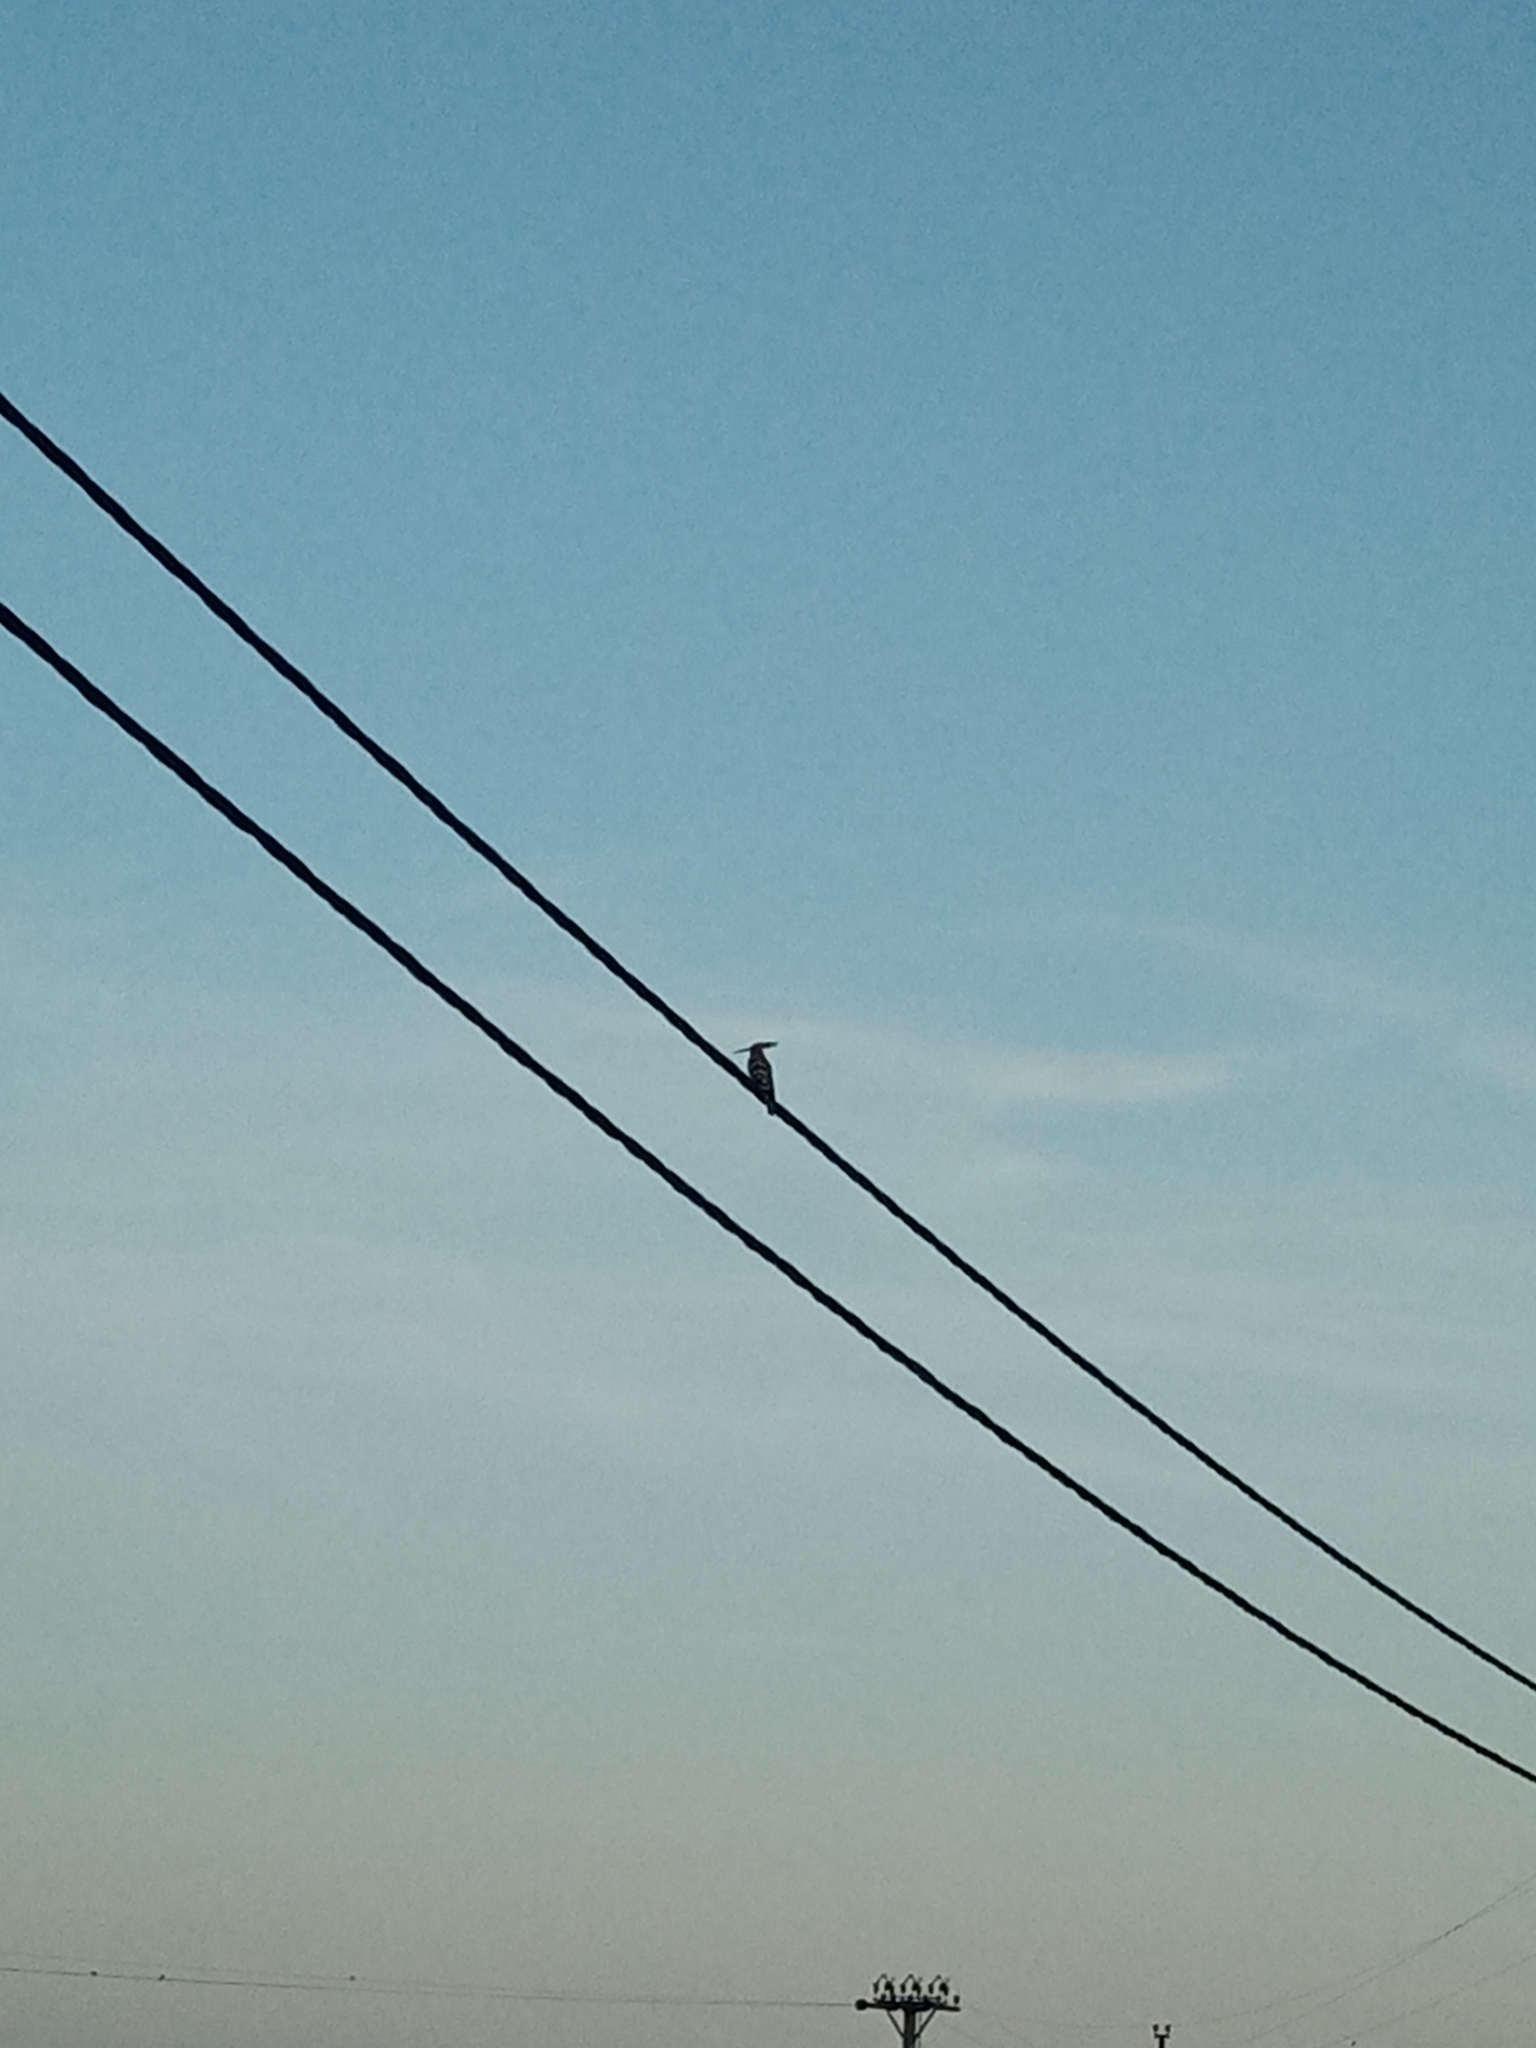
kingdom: Animalia
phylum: Chordata
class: Aves
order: Bucerotiformes
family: Upupidae
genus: Upupa
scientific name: Upupa epops
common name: Eurasian hoopoe
